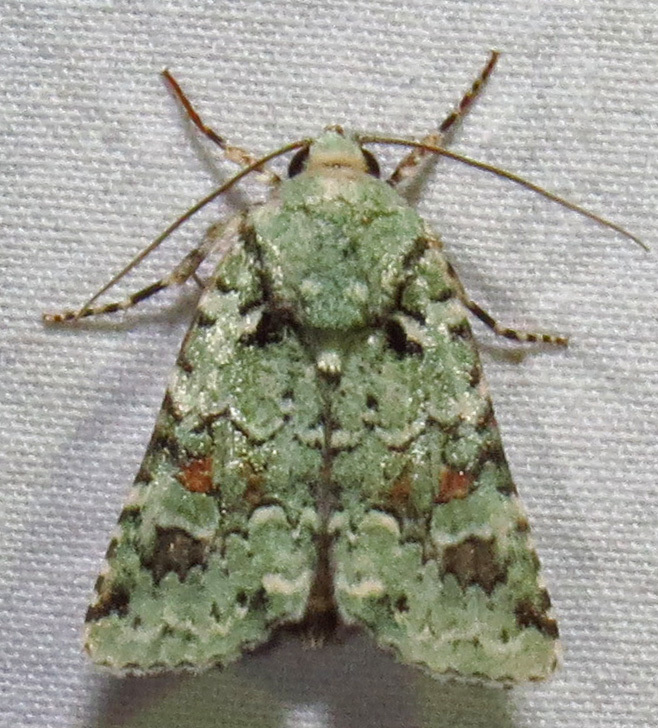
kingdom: Animalia
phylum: Arthropoda
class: Insecta
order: Lepidoptera
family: Noctuidae
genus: Lacinipolia
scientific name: Lacinipolia laudabilis
